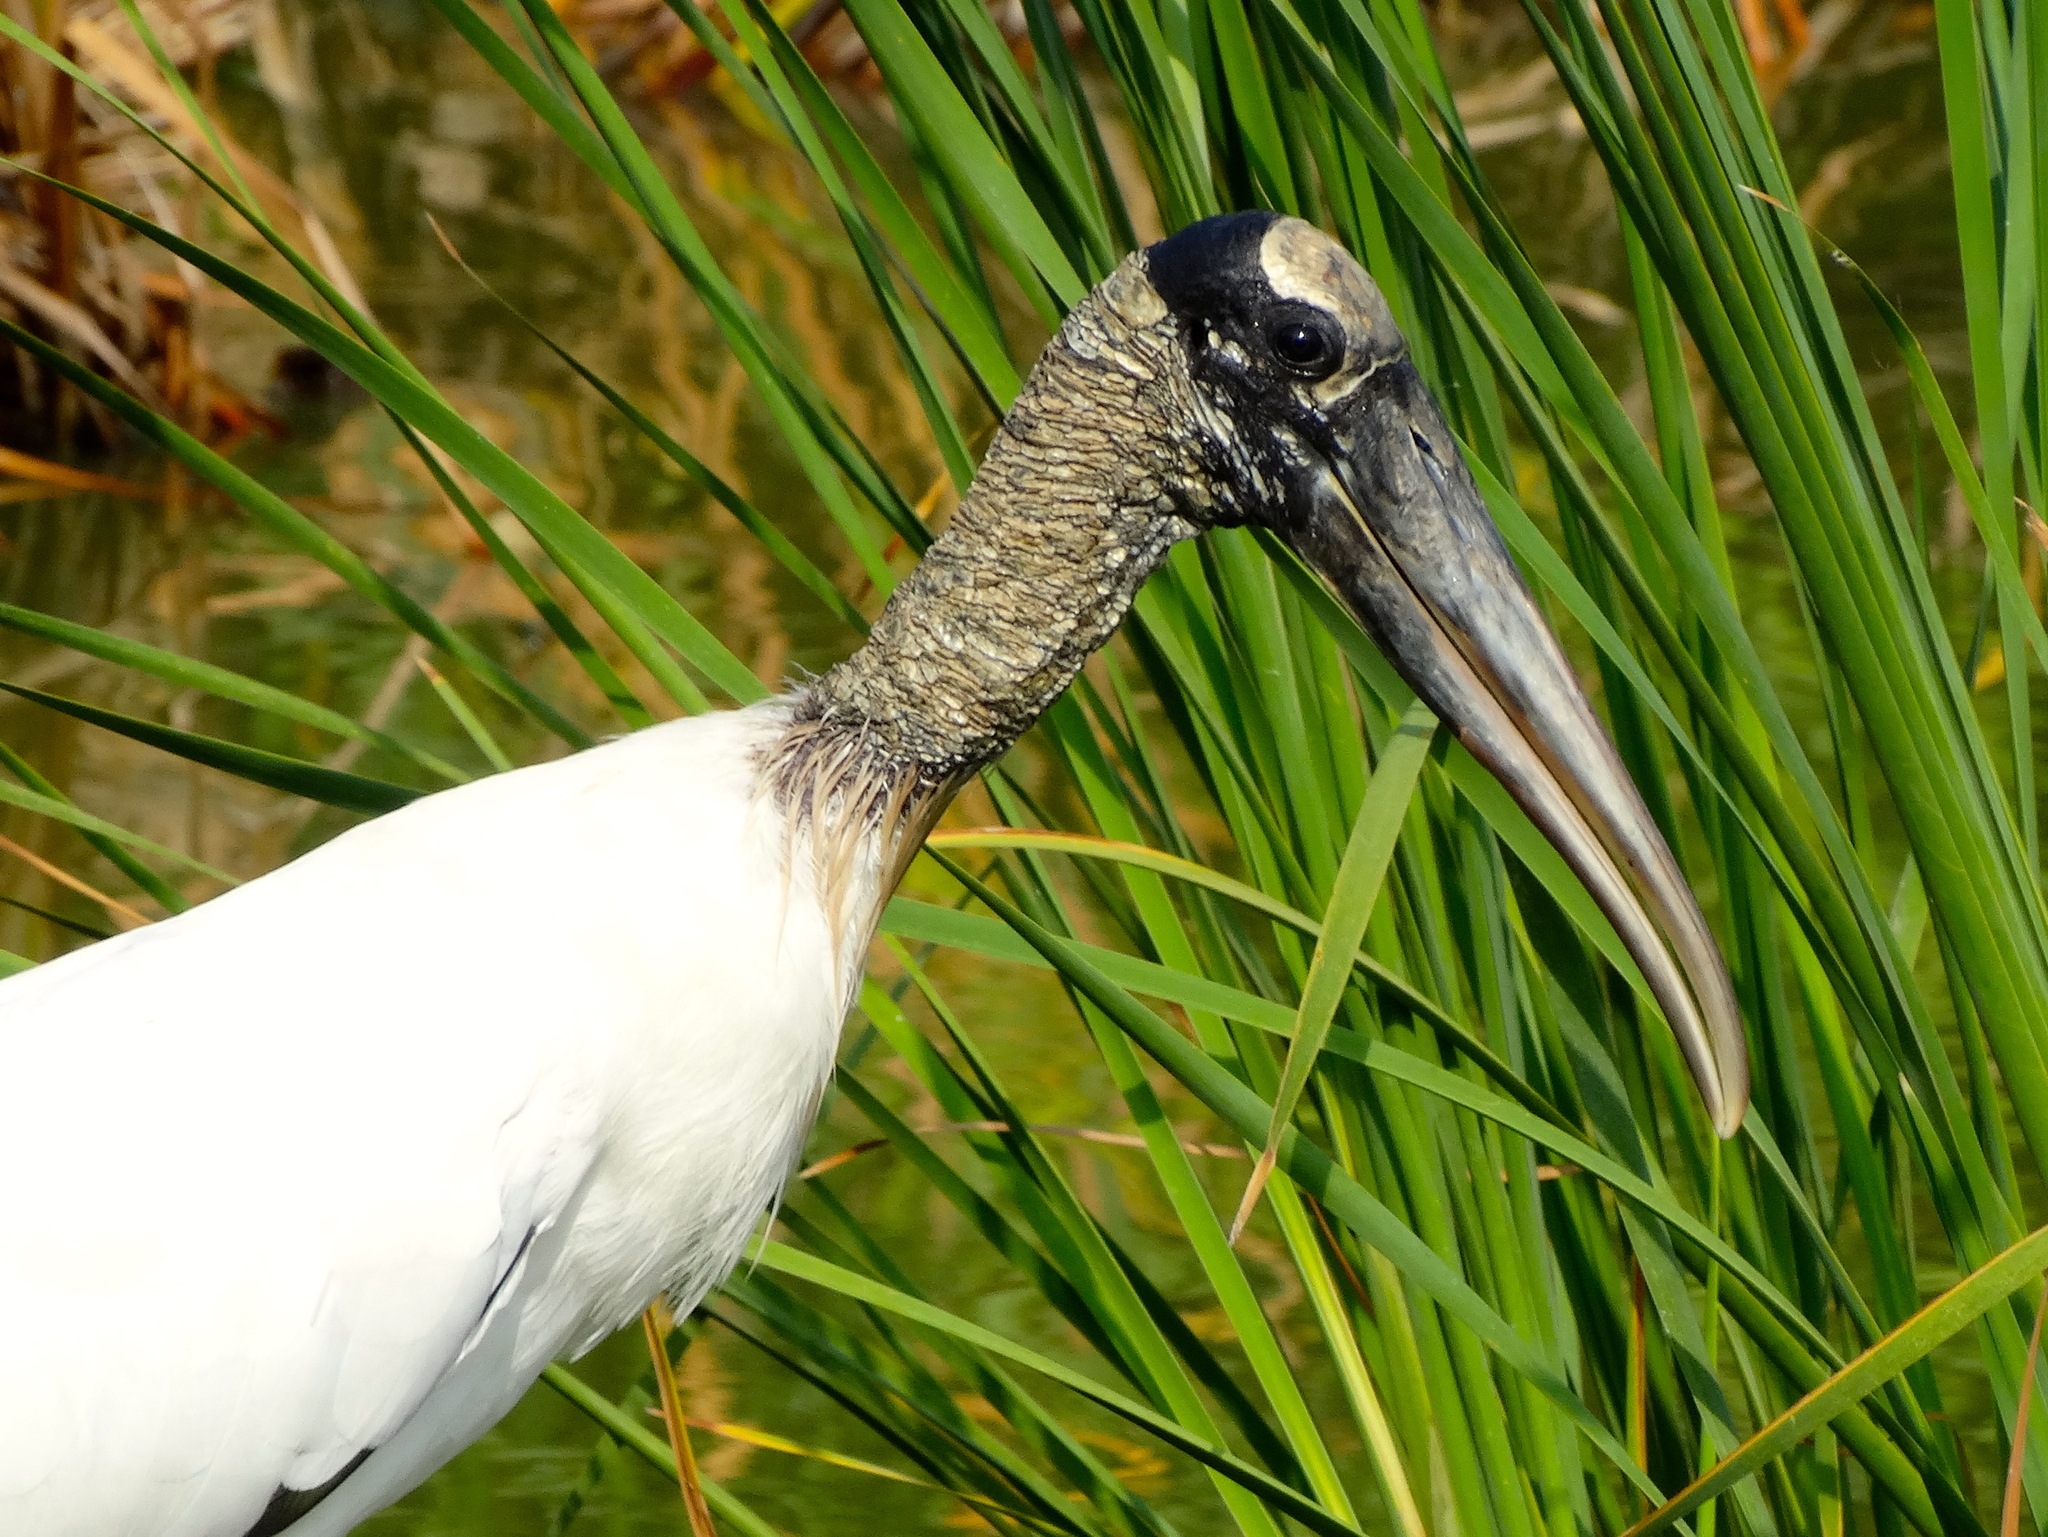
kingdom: Animalia
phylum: Chordata
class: Aves
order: Ciconiiformes
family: Ciconiidae
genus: Mycteria
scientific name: Mycteria americana
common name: Wood stork
